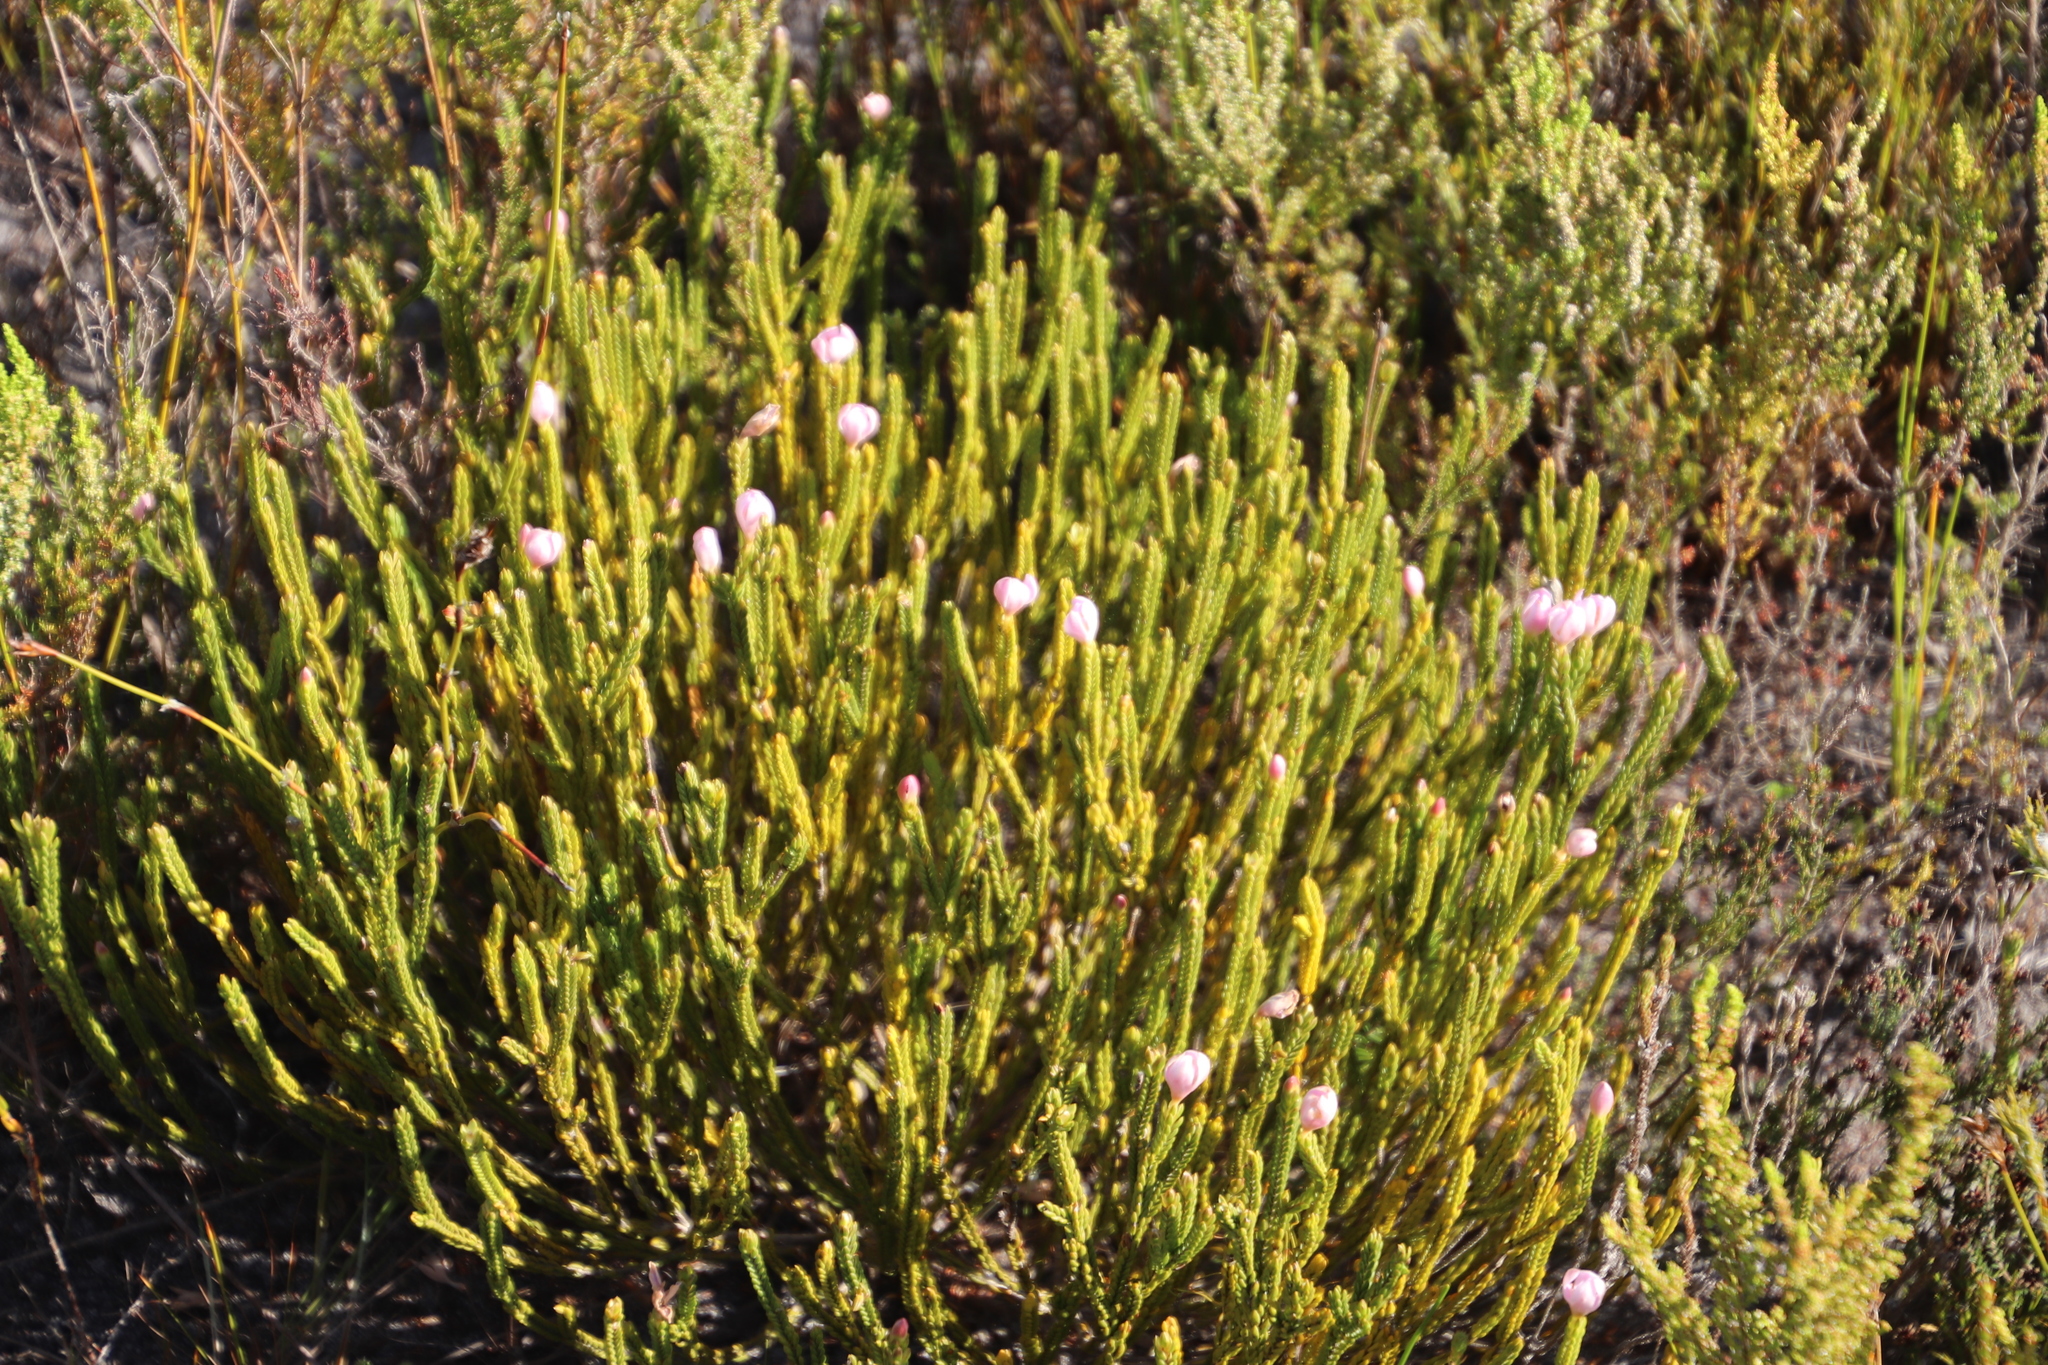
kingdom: Plantae
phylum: Tracheophyta
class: Magnoliopsida
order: Malvales
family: Thymelaeaceae
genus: Lachnaea
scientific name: Lachnaea grandiflora
